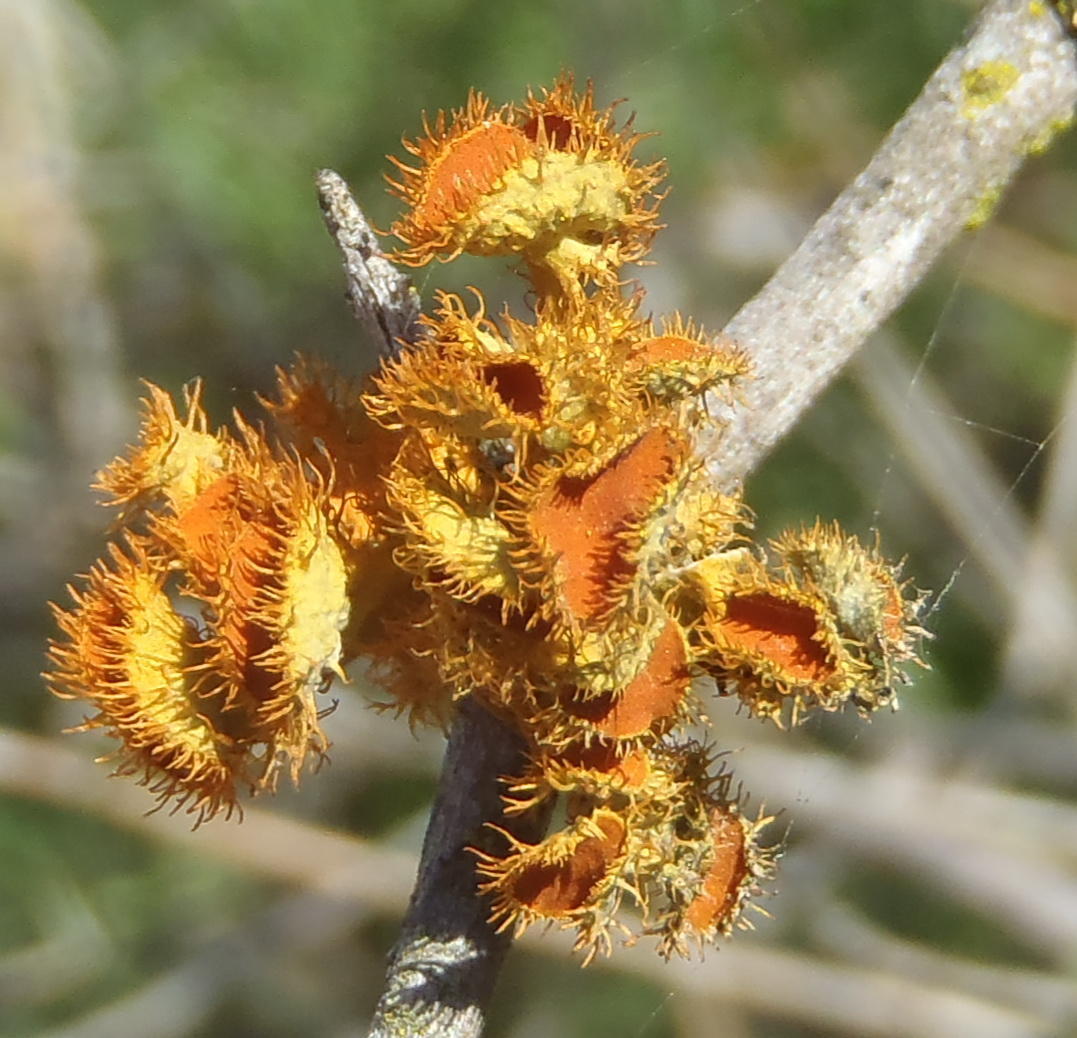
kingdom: Fungi
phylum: Ascomycota
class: Lecanoromycetes
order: Teloschistales
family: Teloschistaceae
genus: Niorma
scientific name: Niorma chrysophthalma
